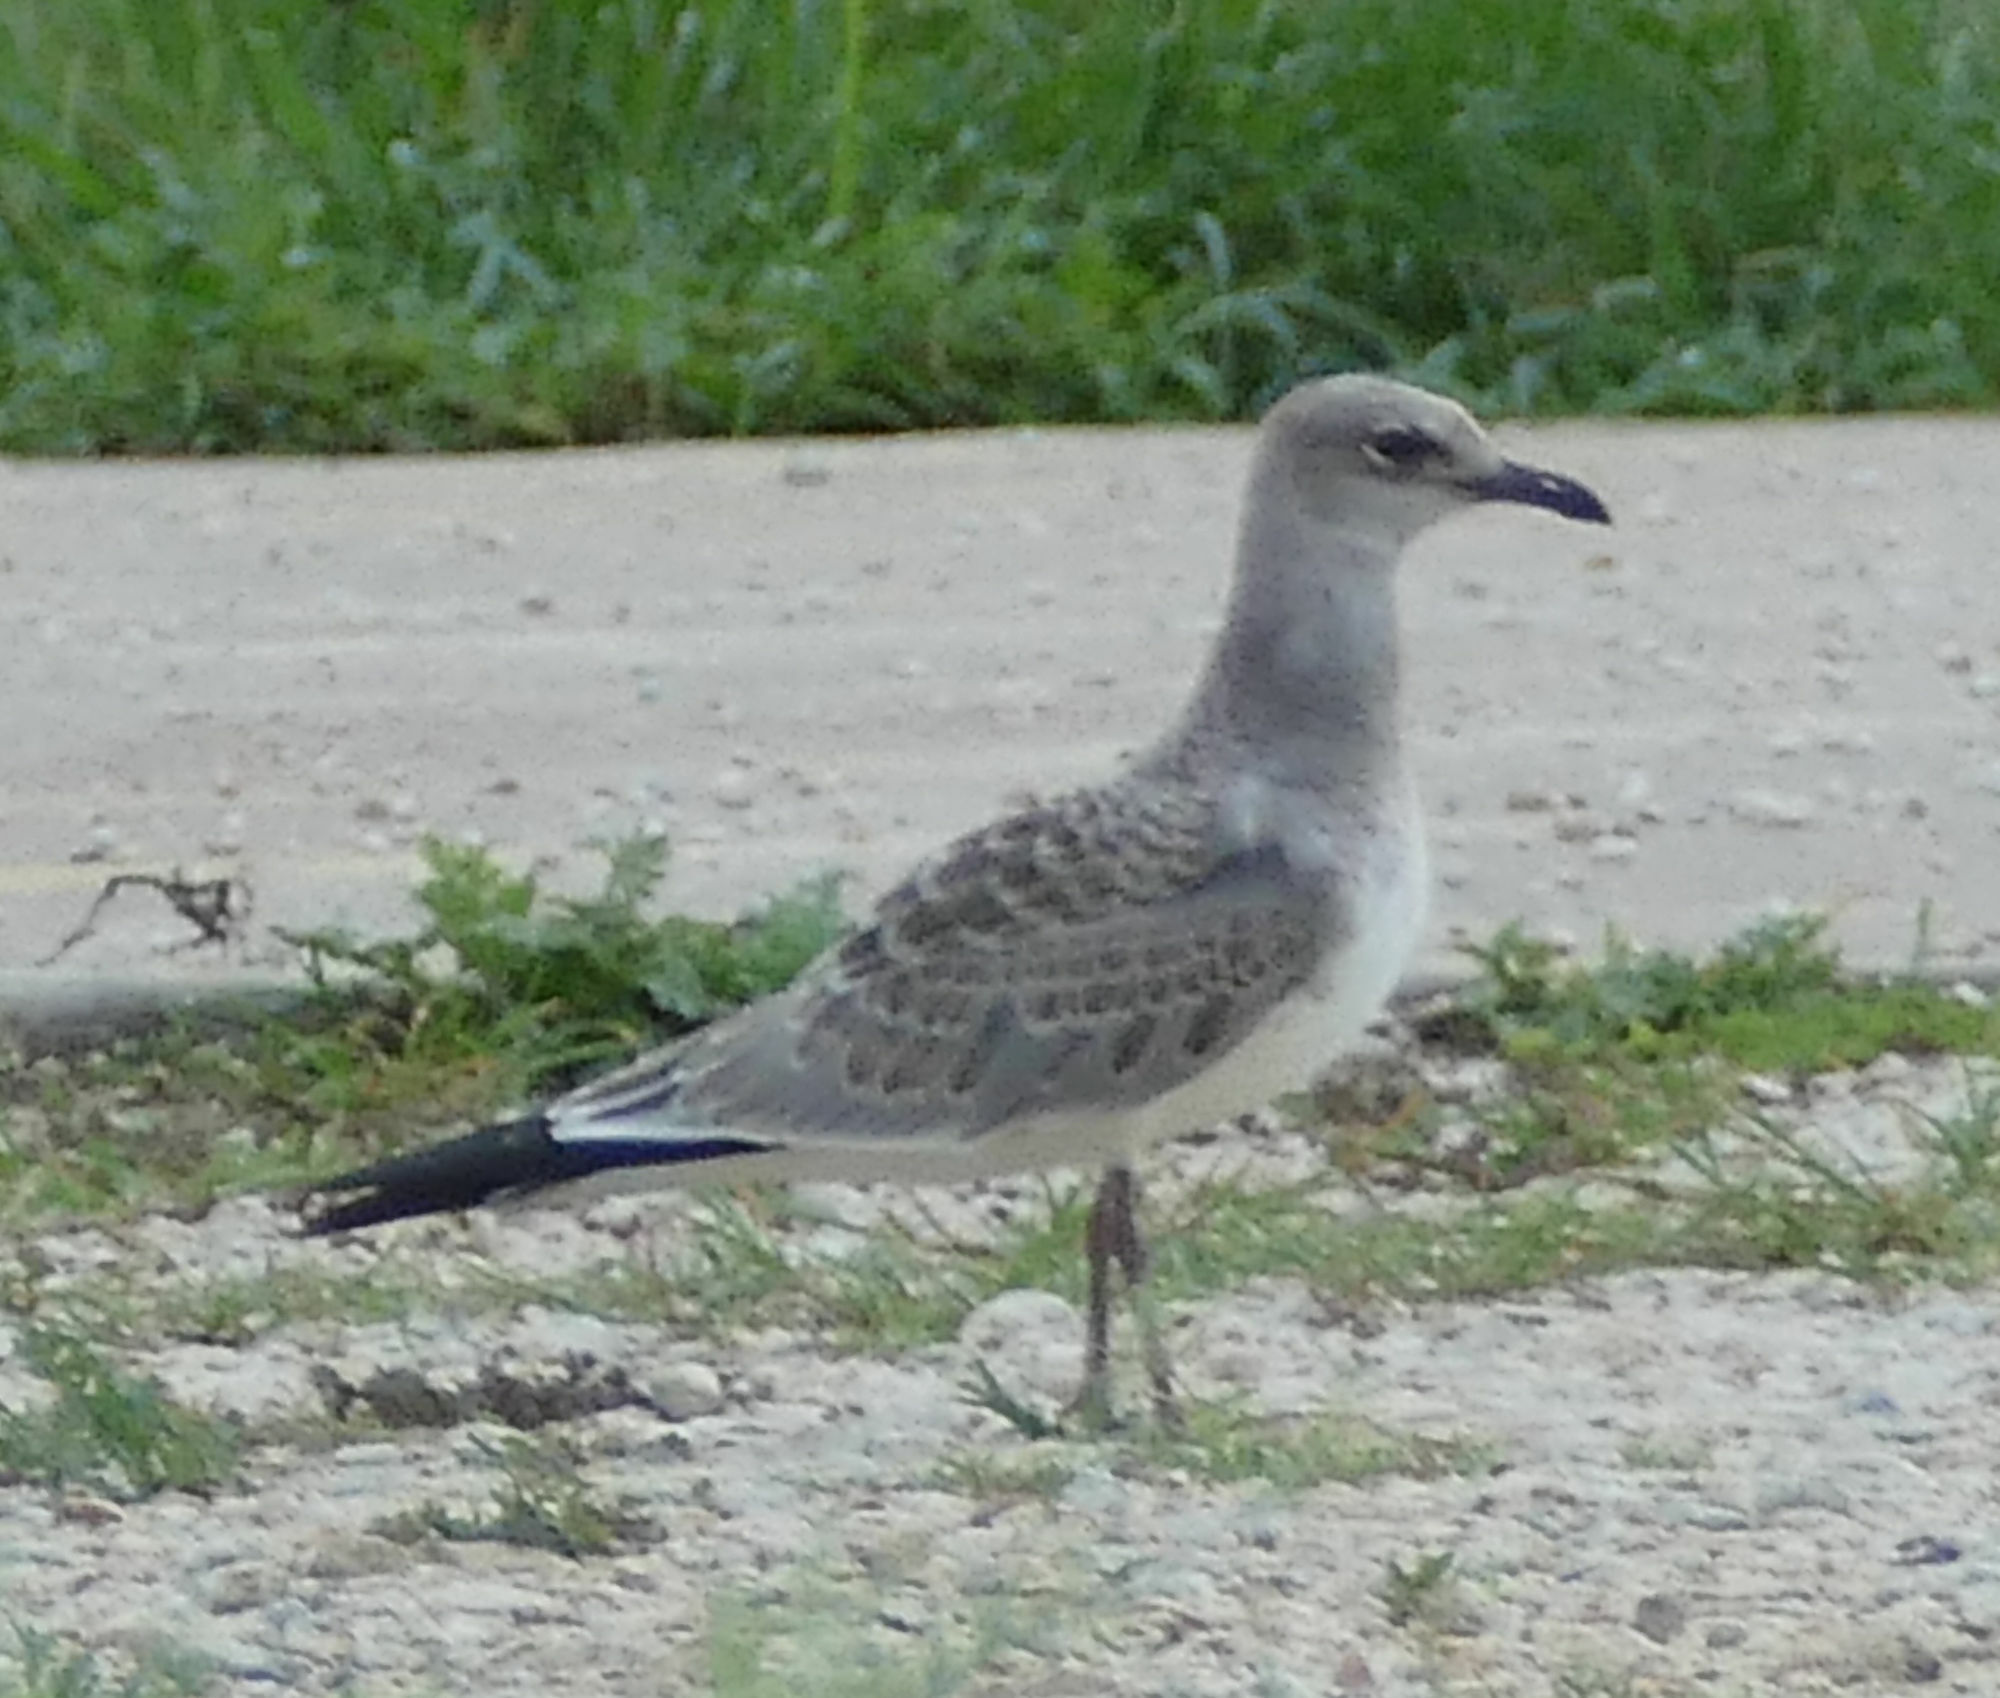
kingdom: Animalia
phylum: Chordata
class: Aves
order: Charadriiformes
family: Laridae
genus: Leucophaeus
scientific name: Leucophaeus atricilla
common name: Laughing gull
